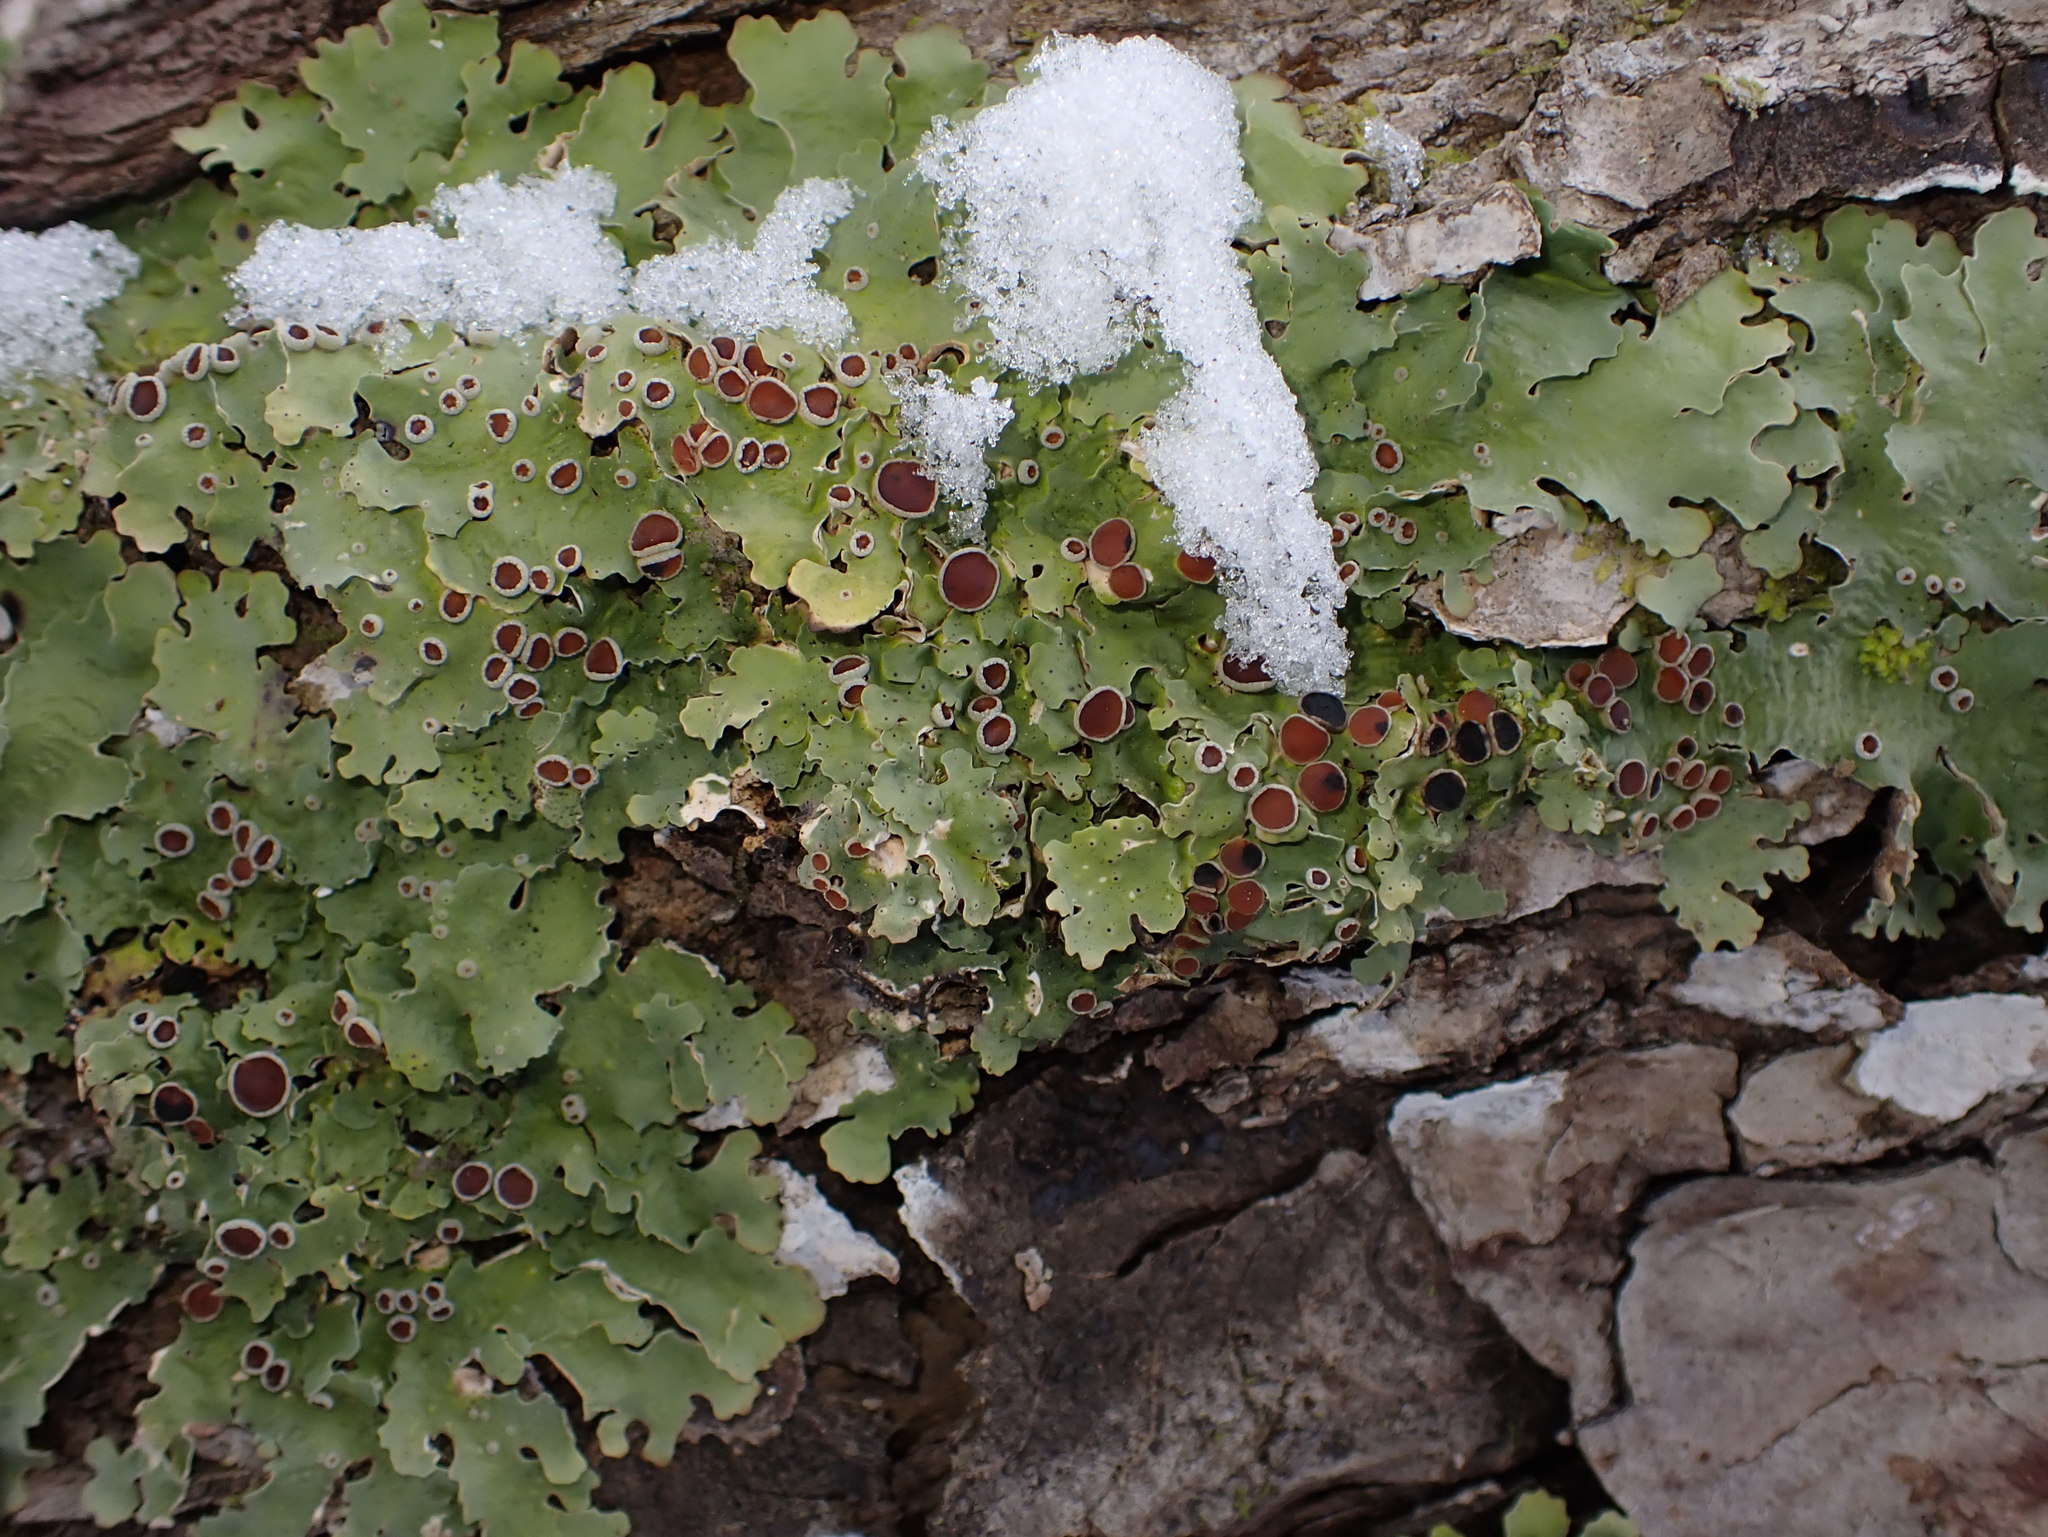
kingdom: Fungi
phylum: Ascomycota
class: Lecanoromycetes
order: Peltigerales
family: Lobariaceae
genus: Ricasolia
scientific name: Ricasolia quercizans
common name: Smooth lungwort
